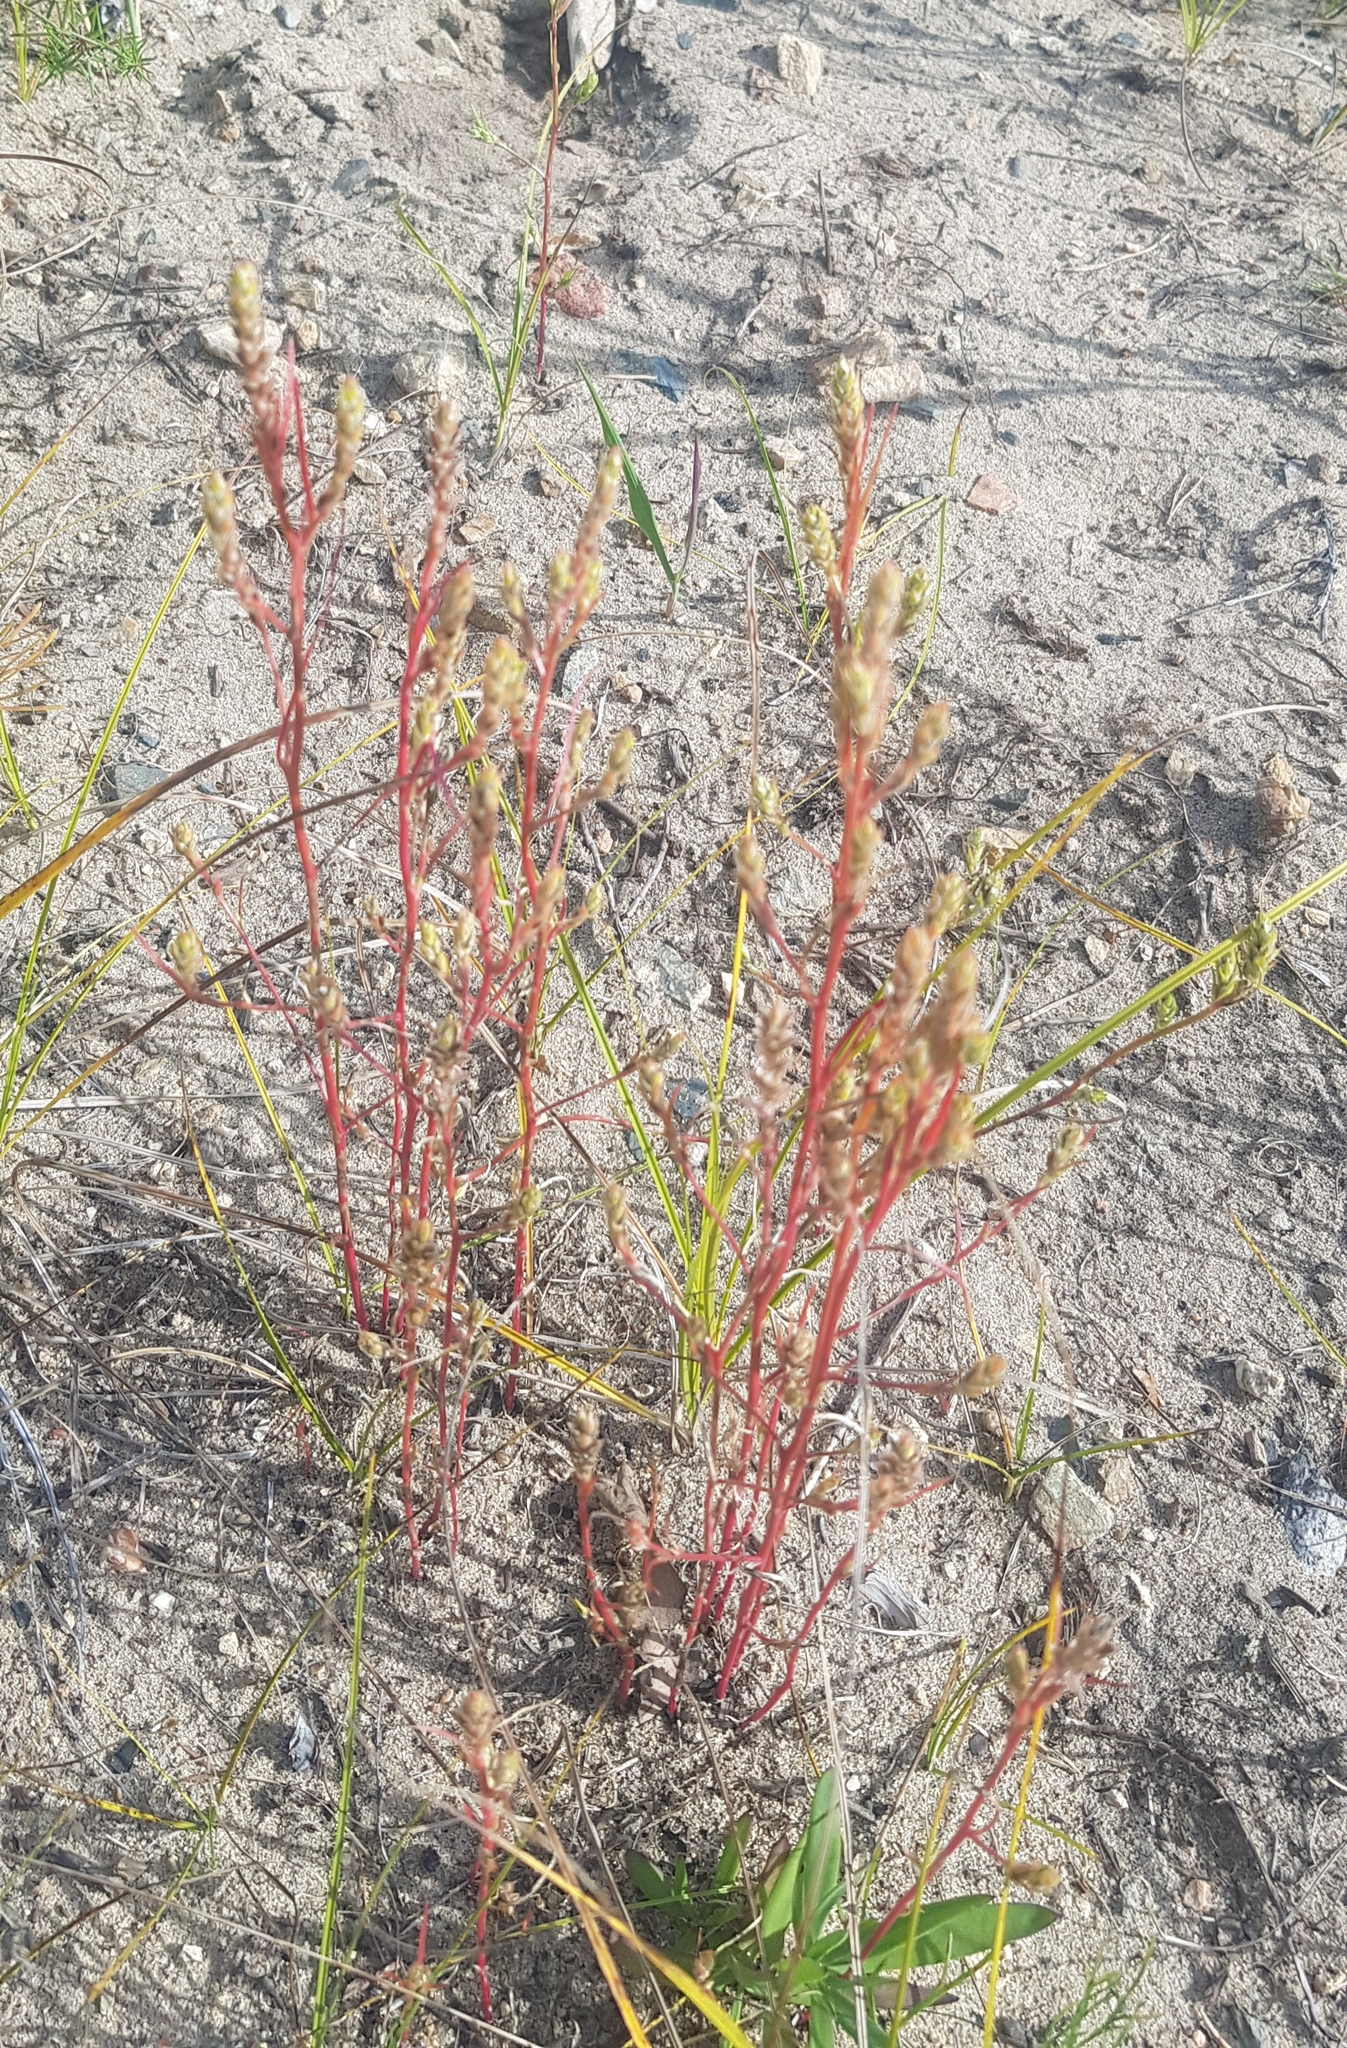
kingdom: Plantae
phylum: Tracheophyta
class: Magnoliopsida
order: Caryophyllales
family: Amaranthaceae
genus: Corispermum
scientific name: Corispermum chinganicum
